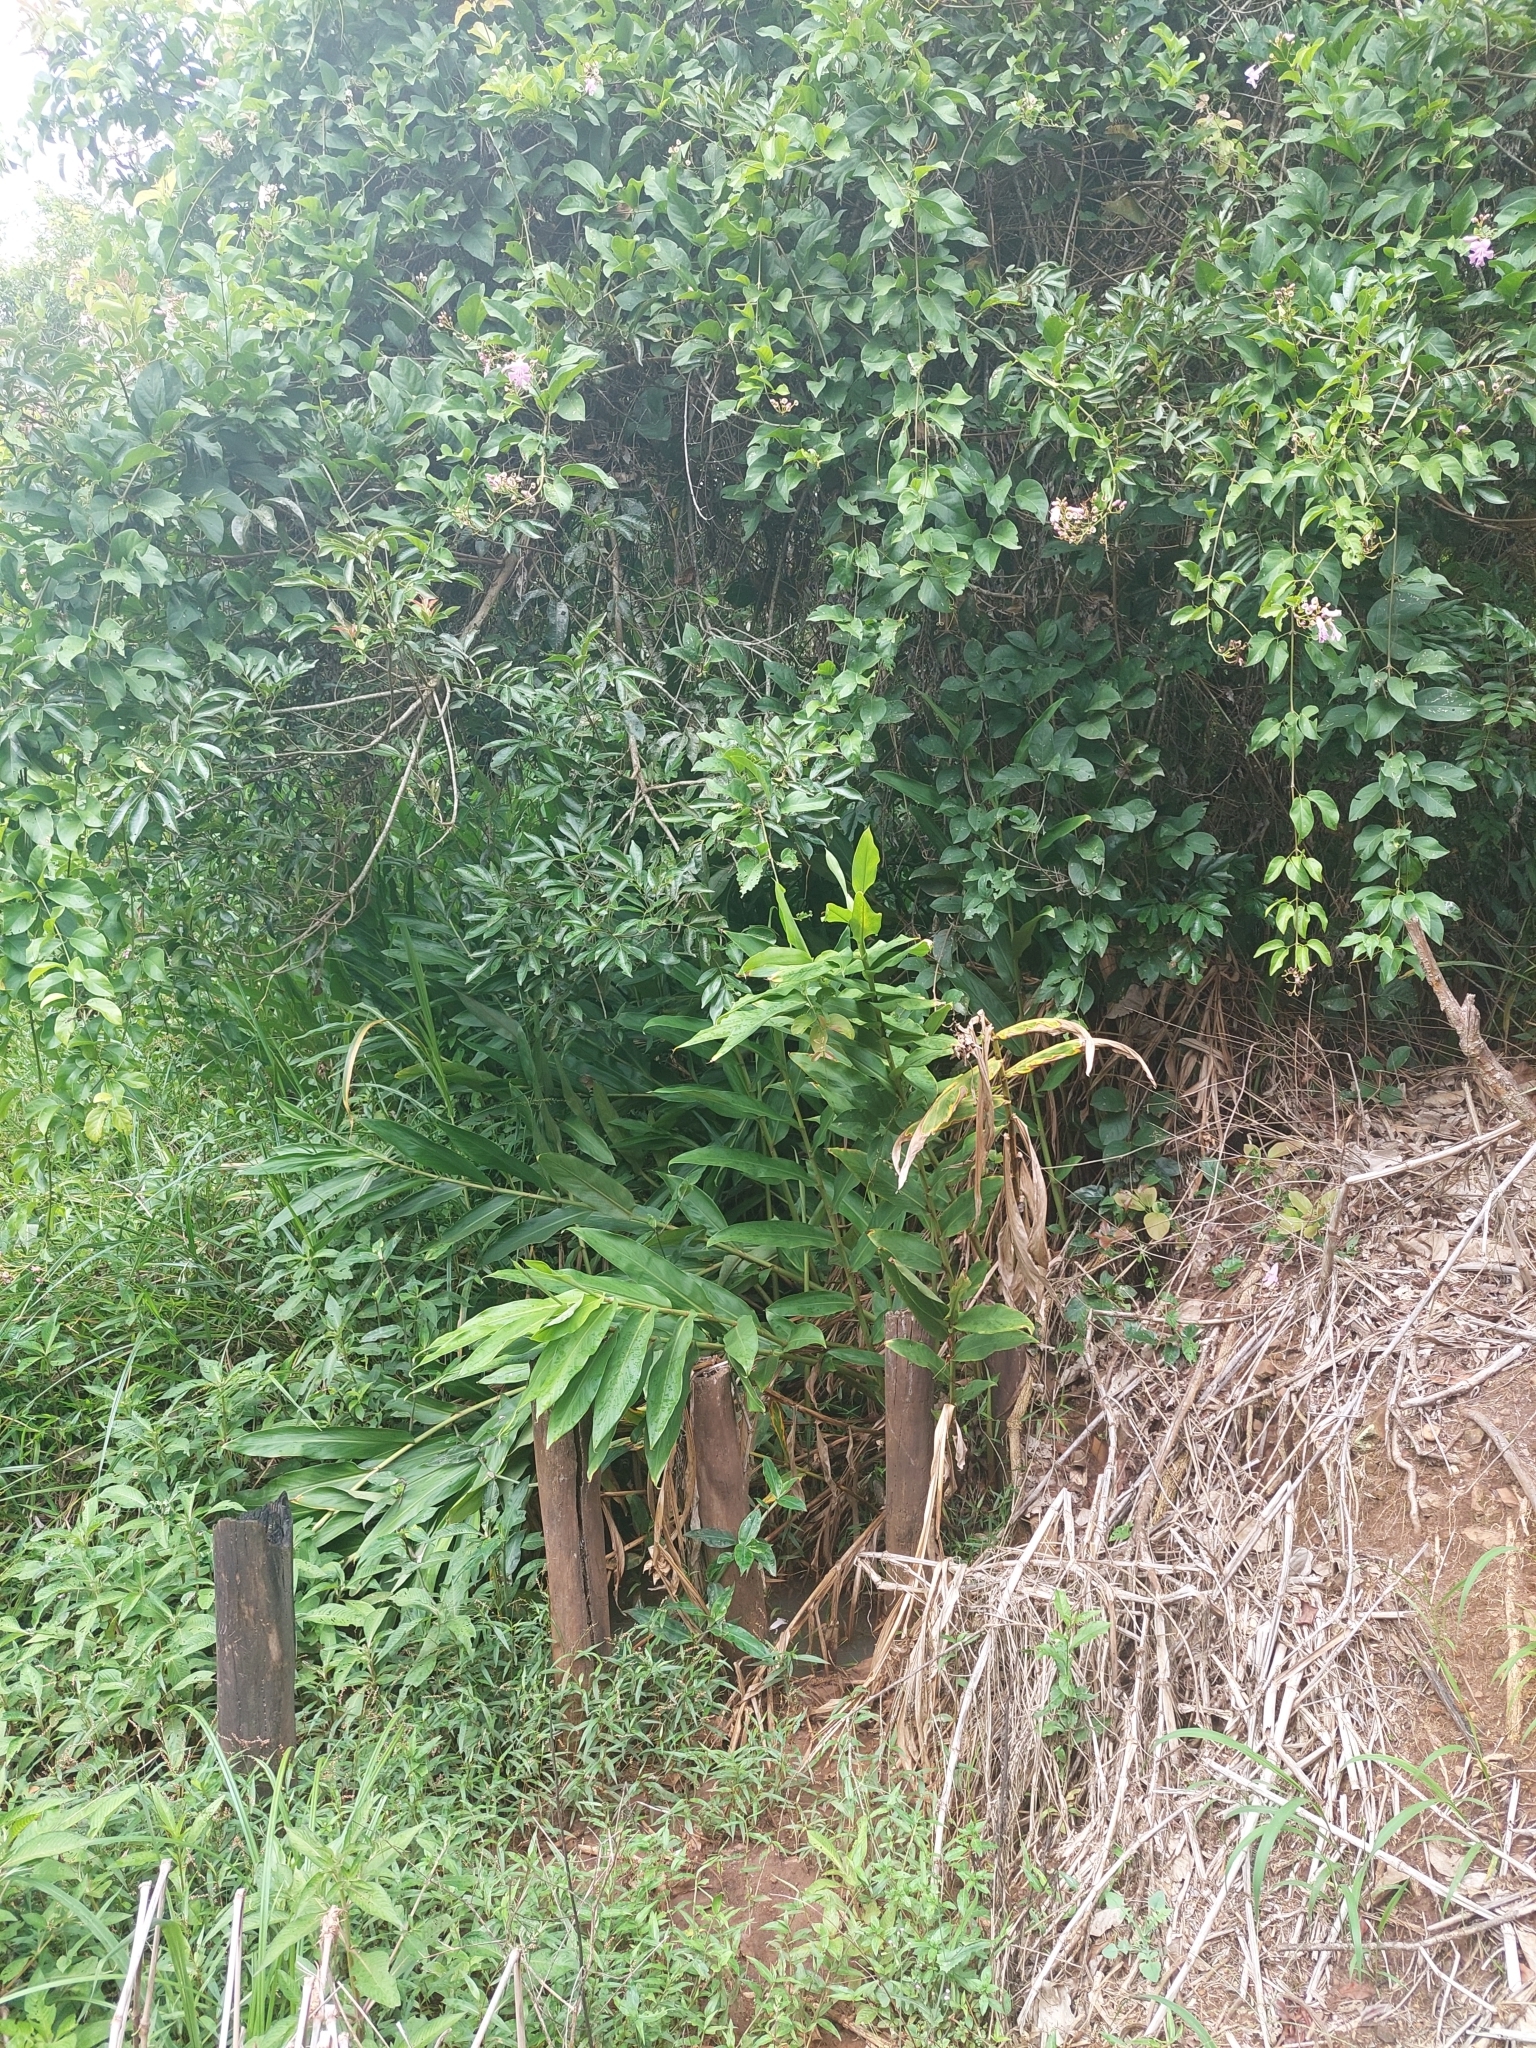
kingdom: Plantae
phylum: Tracheophyta
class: Liliopsida
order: Zingiberales
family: Zingiberaceae
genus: Hedychium
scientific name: Hedychium coronarium
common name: White garland-lily
